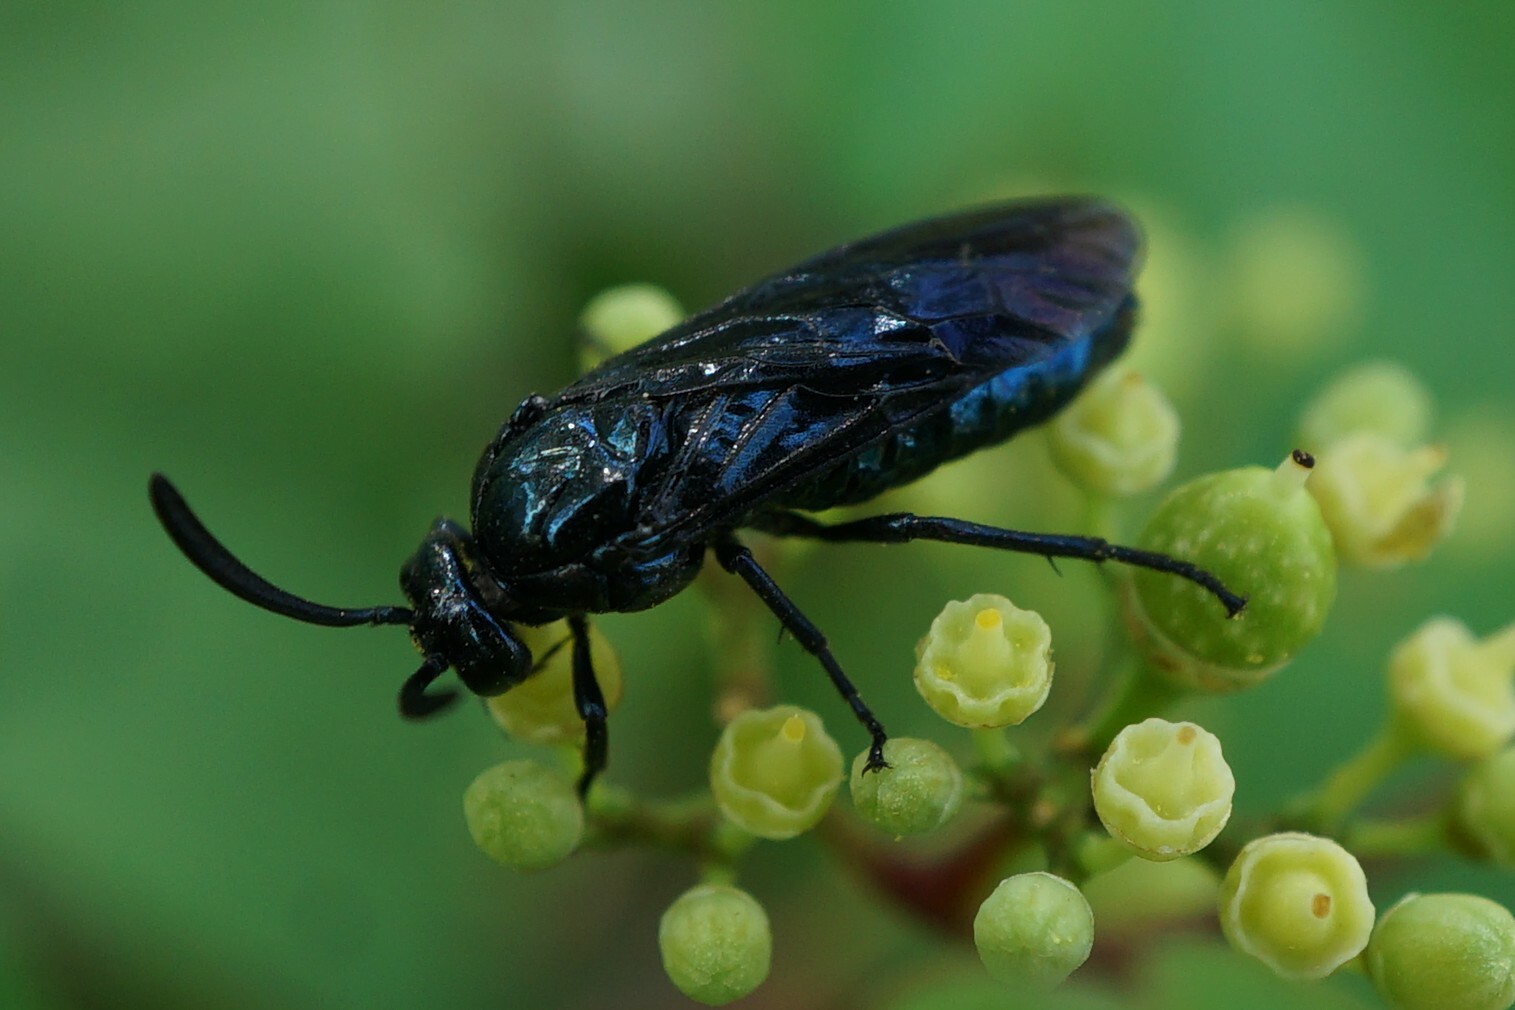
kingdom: Animalia
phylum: Arthropoda
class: Insecta
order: Hymenoptera
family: Argidae
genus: Arge
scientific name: Arge similis
